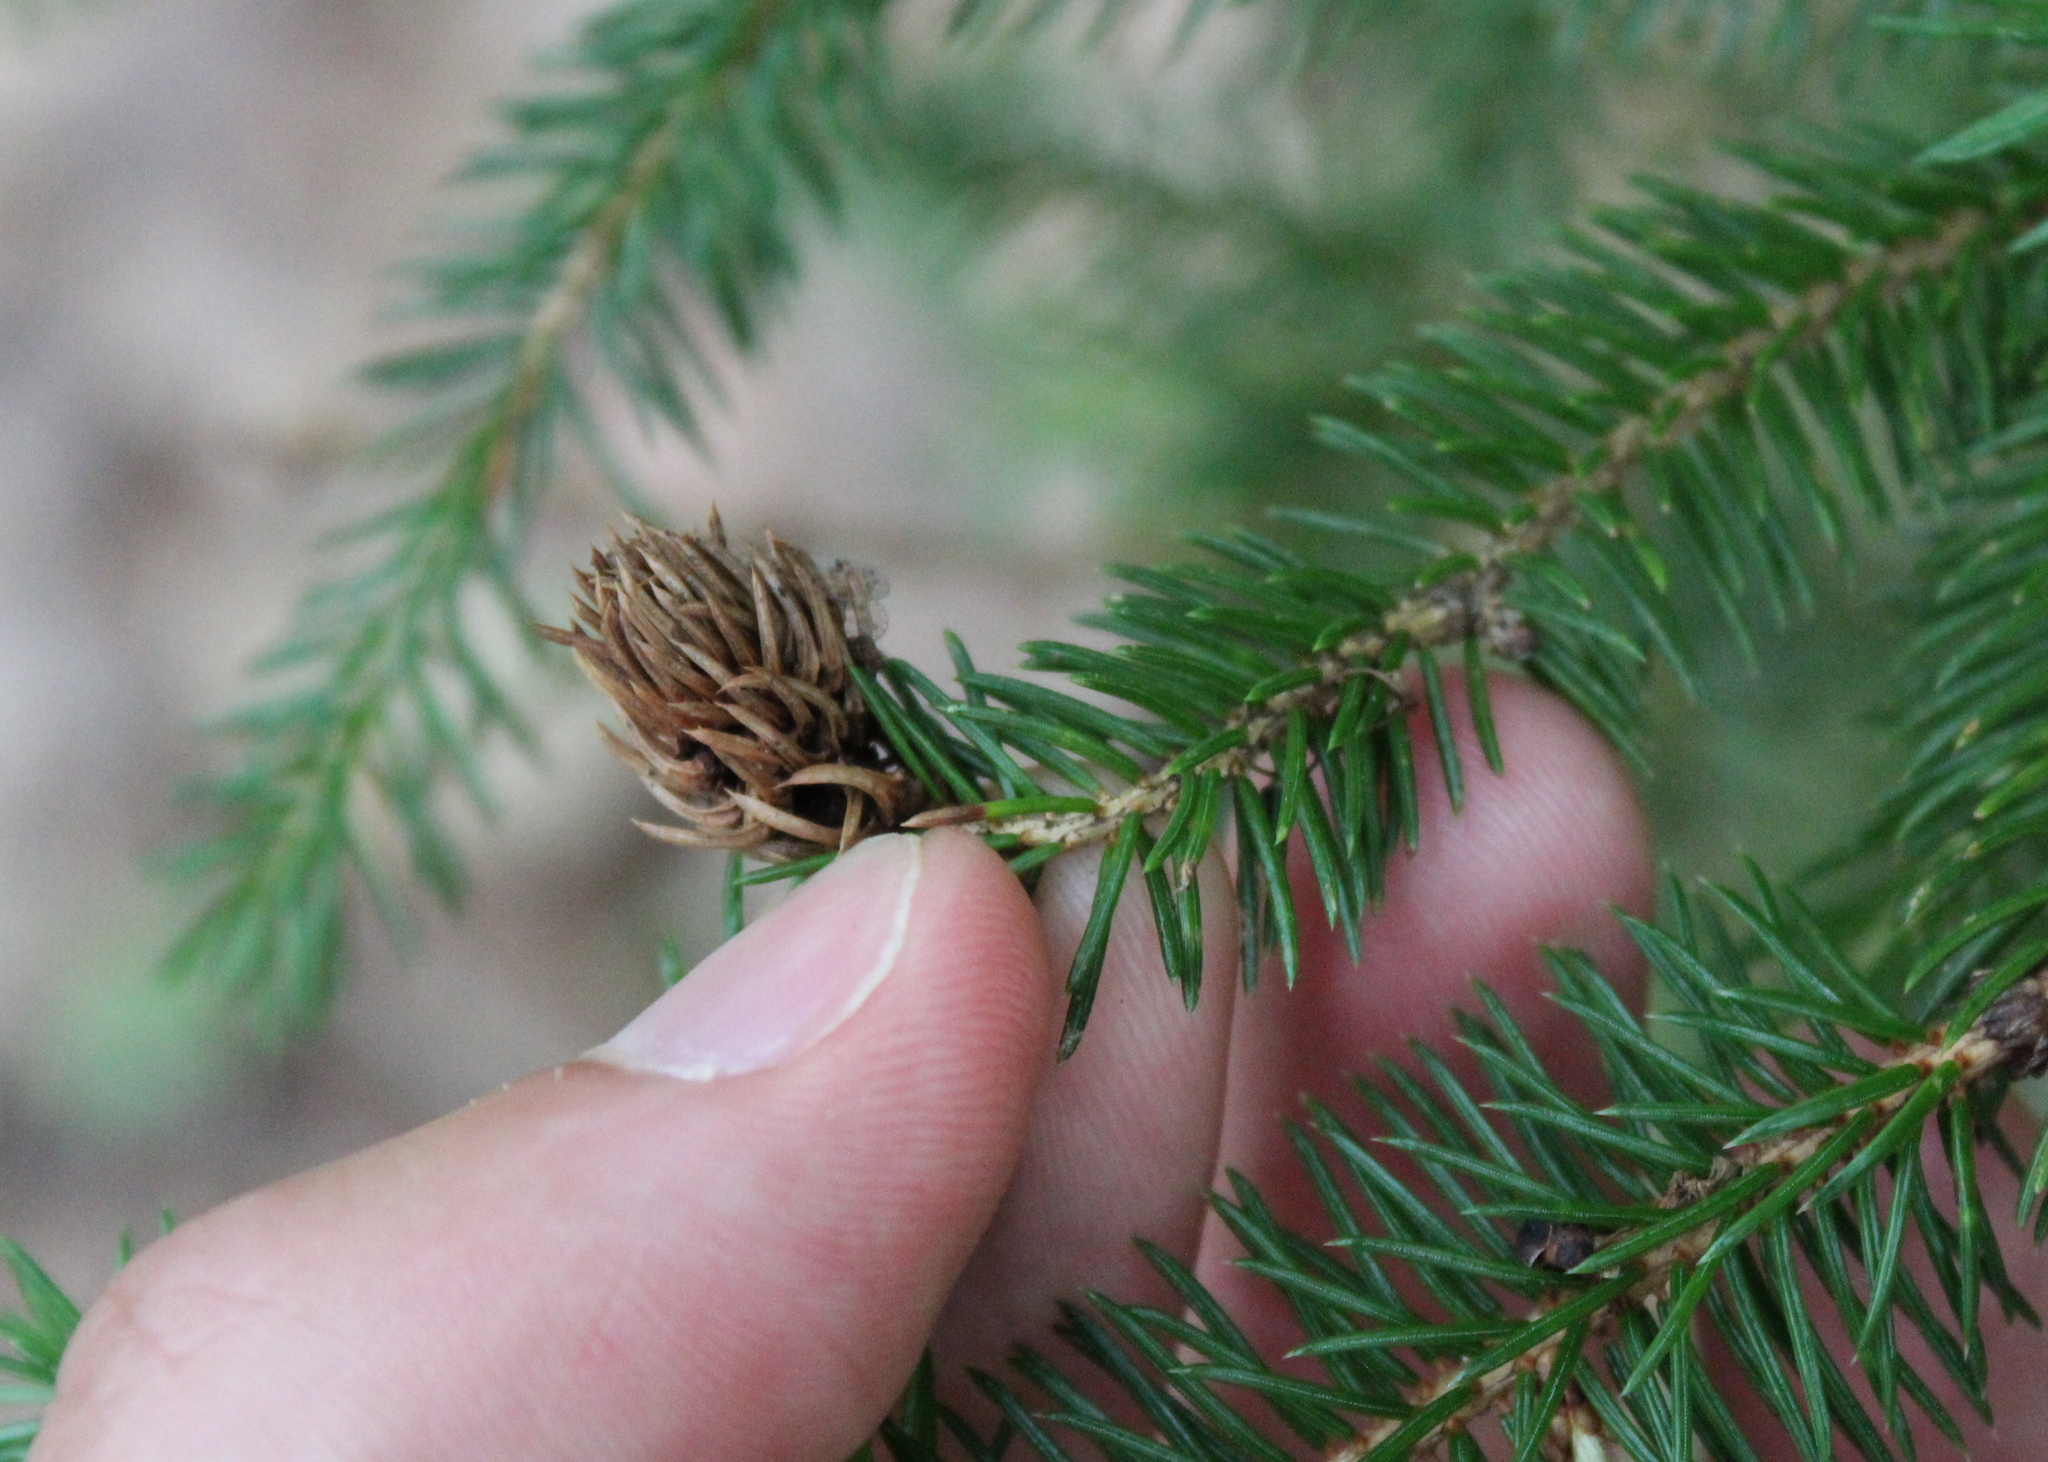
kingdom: Animalia
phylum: Arthropoda
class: Insecta
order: Hemiptera
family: Adelgidae
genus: Adelges
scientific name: Adelges abietis
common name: Eastern spruce gall adelgid
